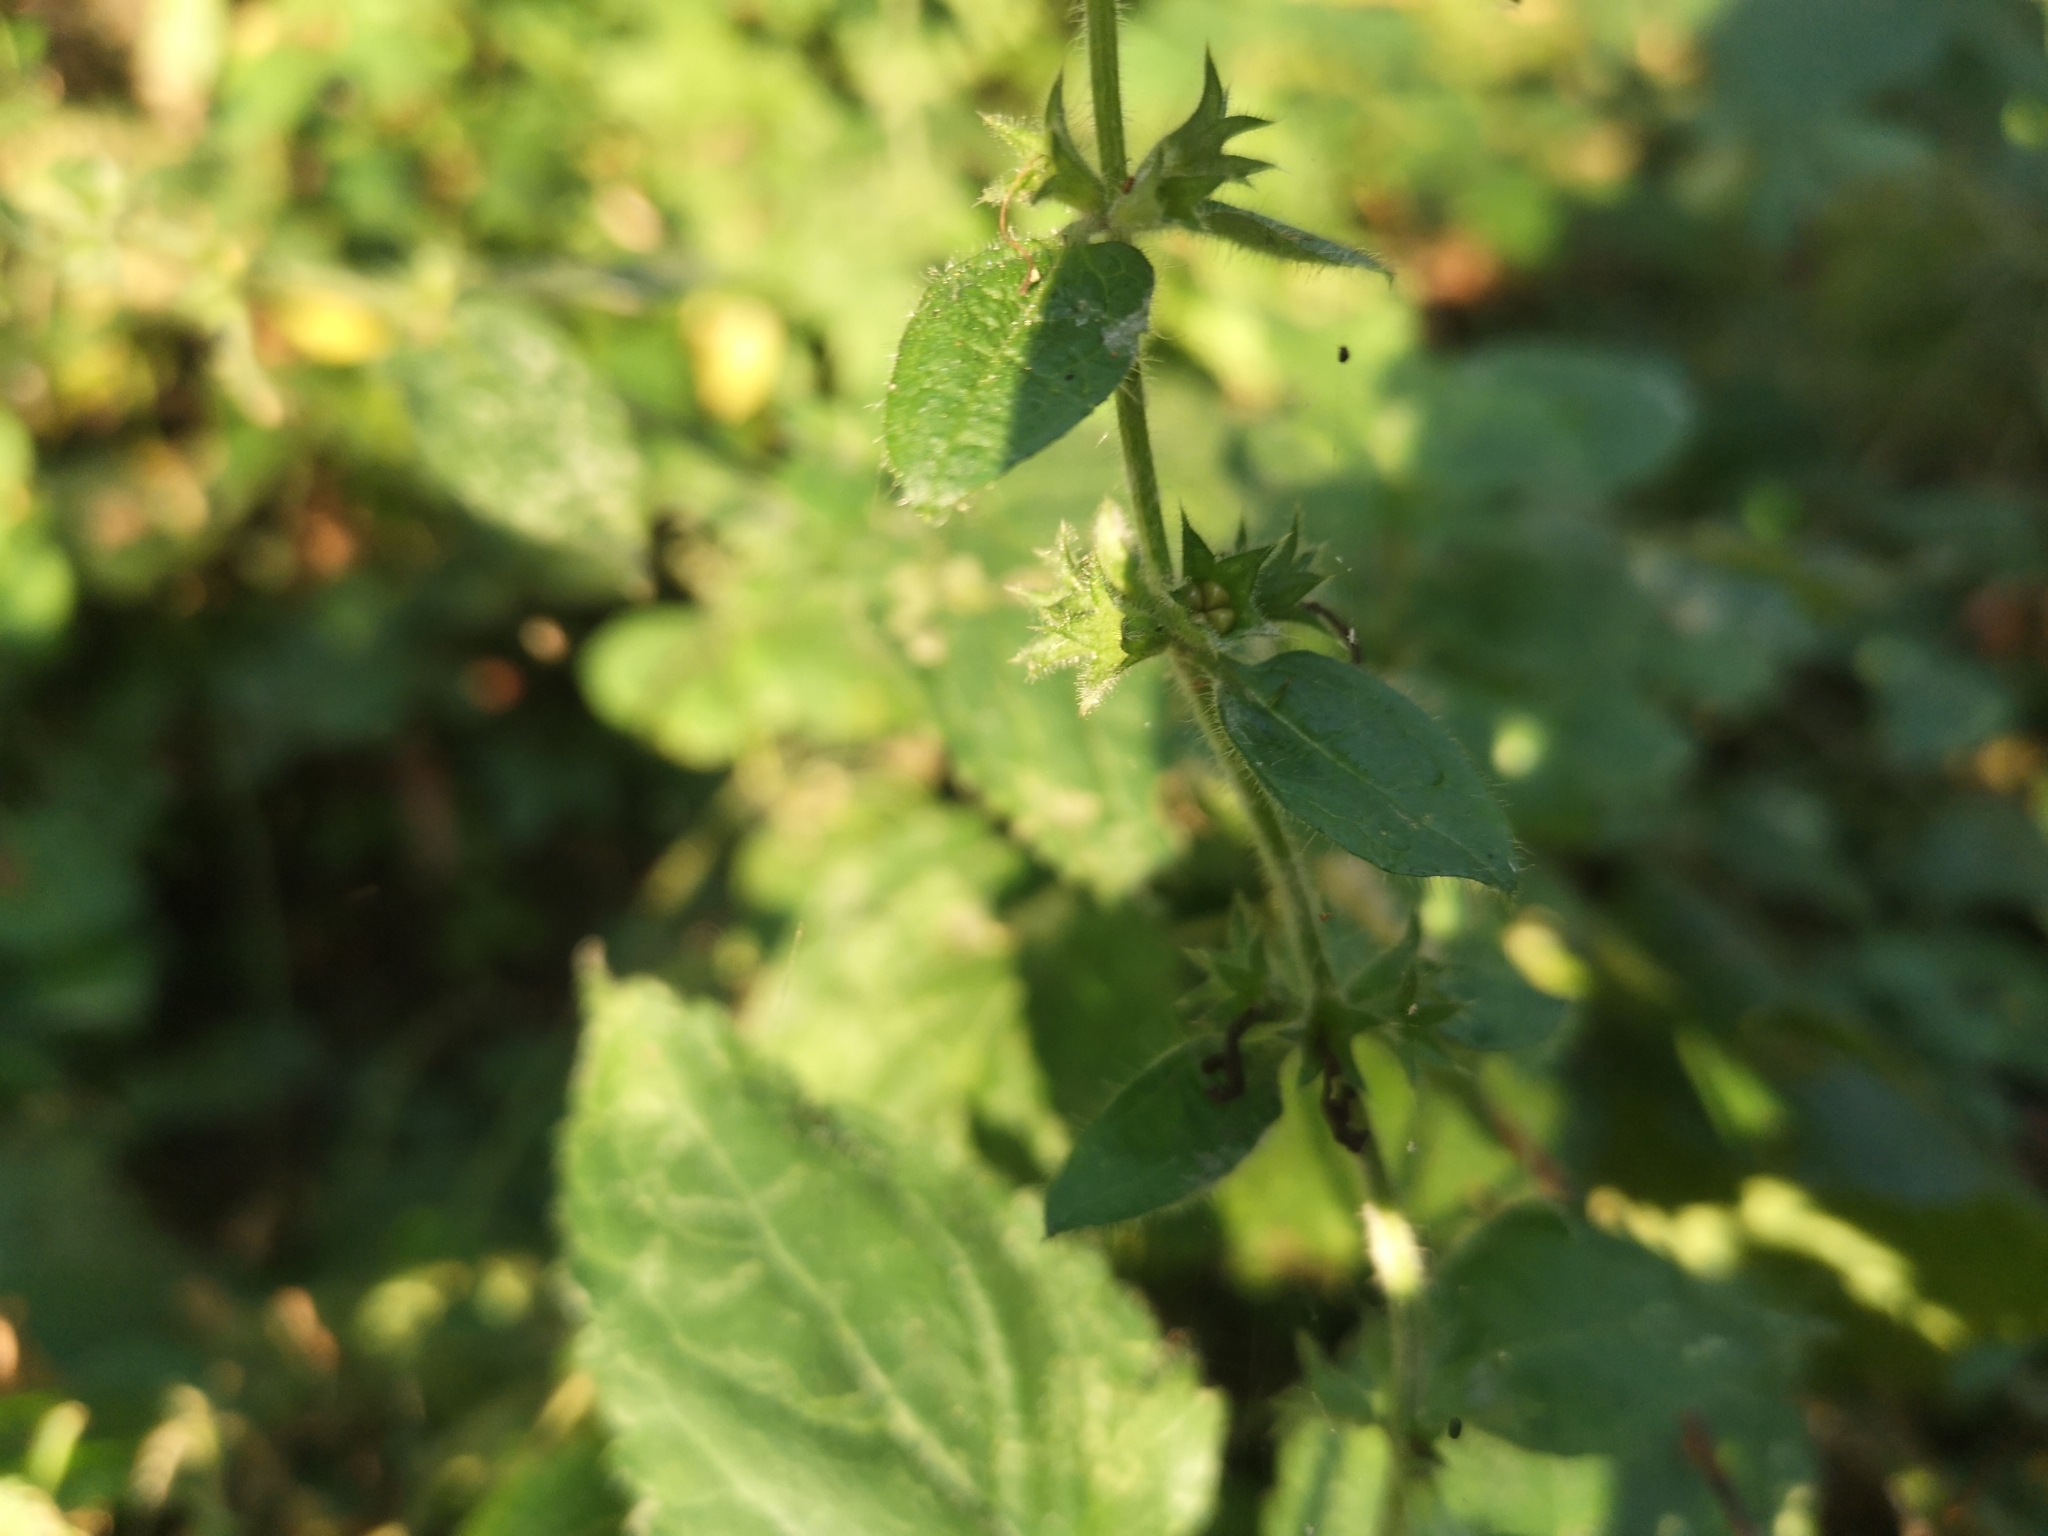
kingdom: Plantae
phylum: Tracheophyta
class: Magnoliopsida
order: Lamiales
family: Lamiaceae
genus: Stachys
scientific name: Stachys sylvatica
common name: Hedge woundwort
